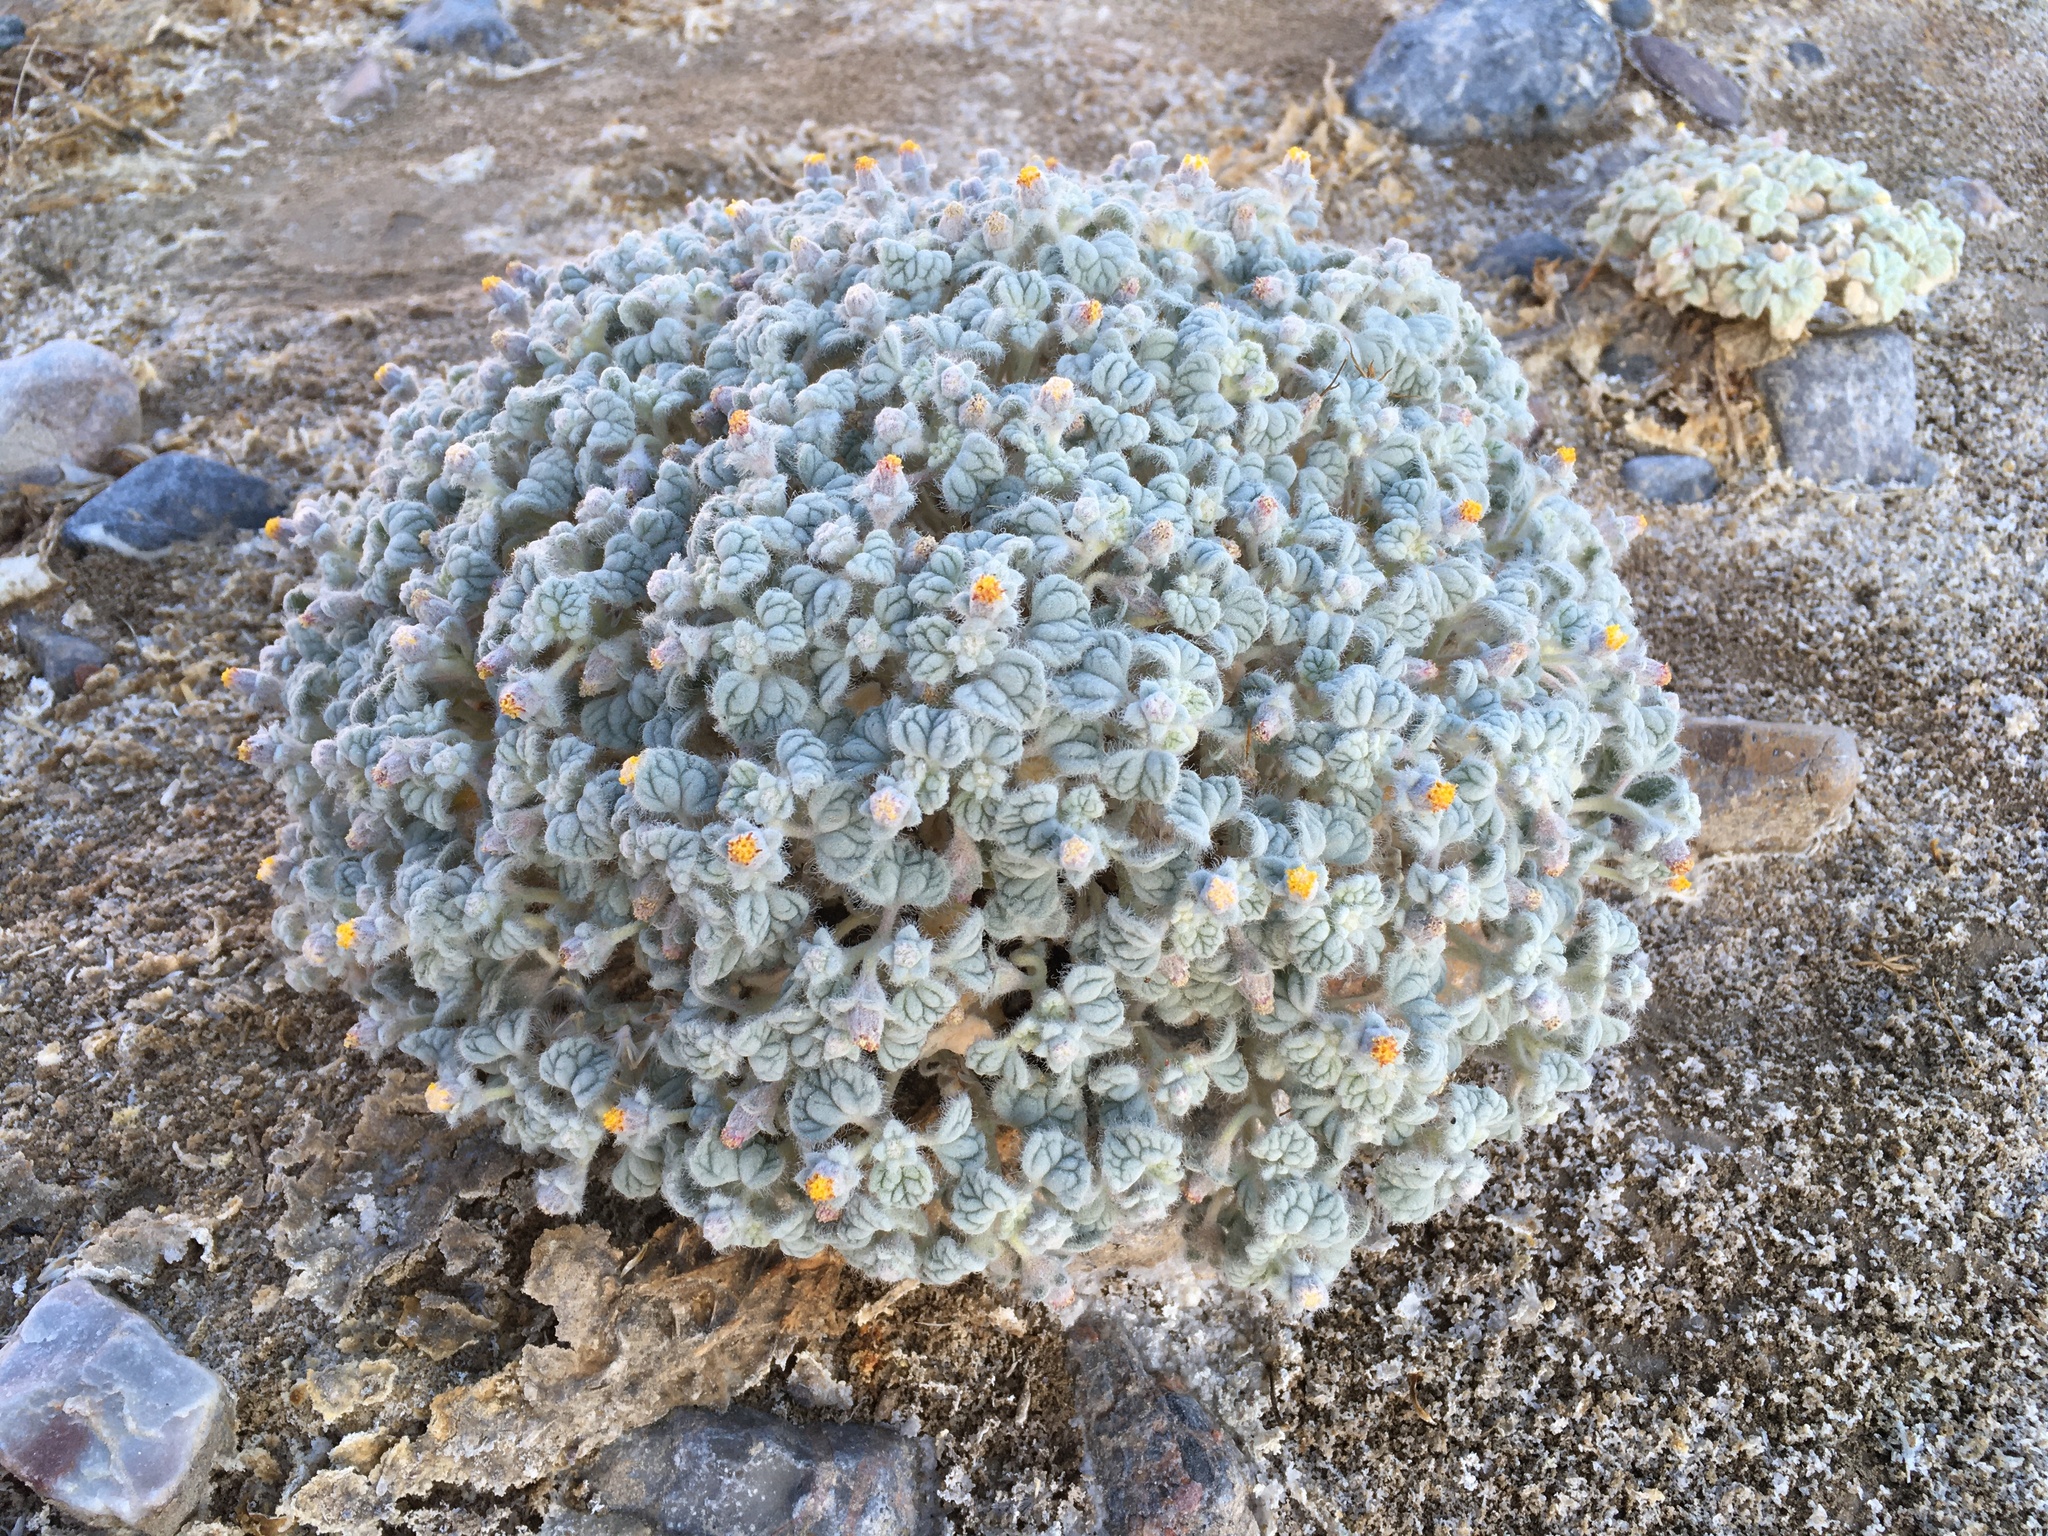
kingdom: Plantae
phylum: Tracheophyta
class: Magnoliopsida
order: Asterales
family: Asteraceae
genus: Psathyrotes
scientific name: Psathyrotes ramosissima
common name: Turtleback
